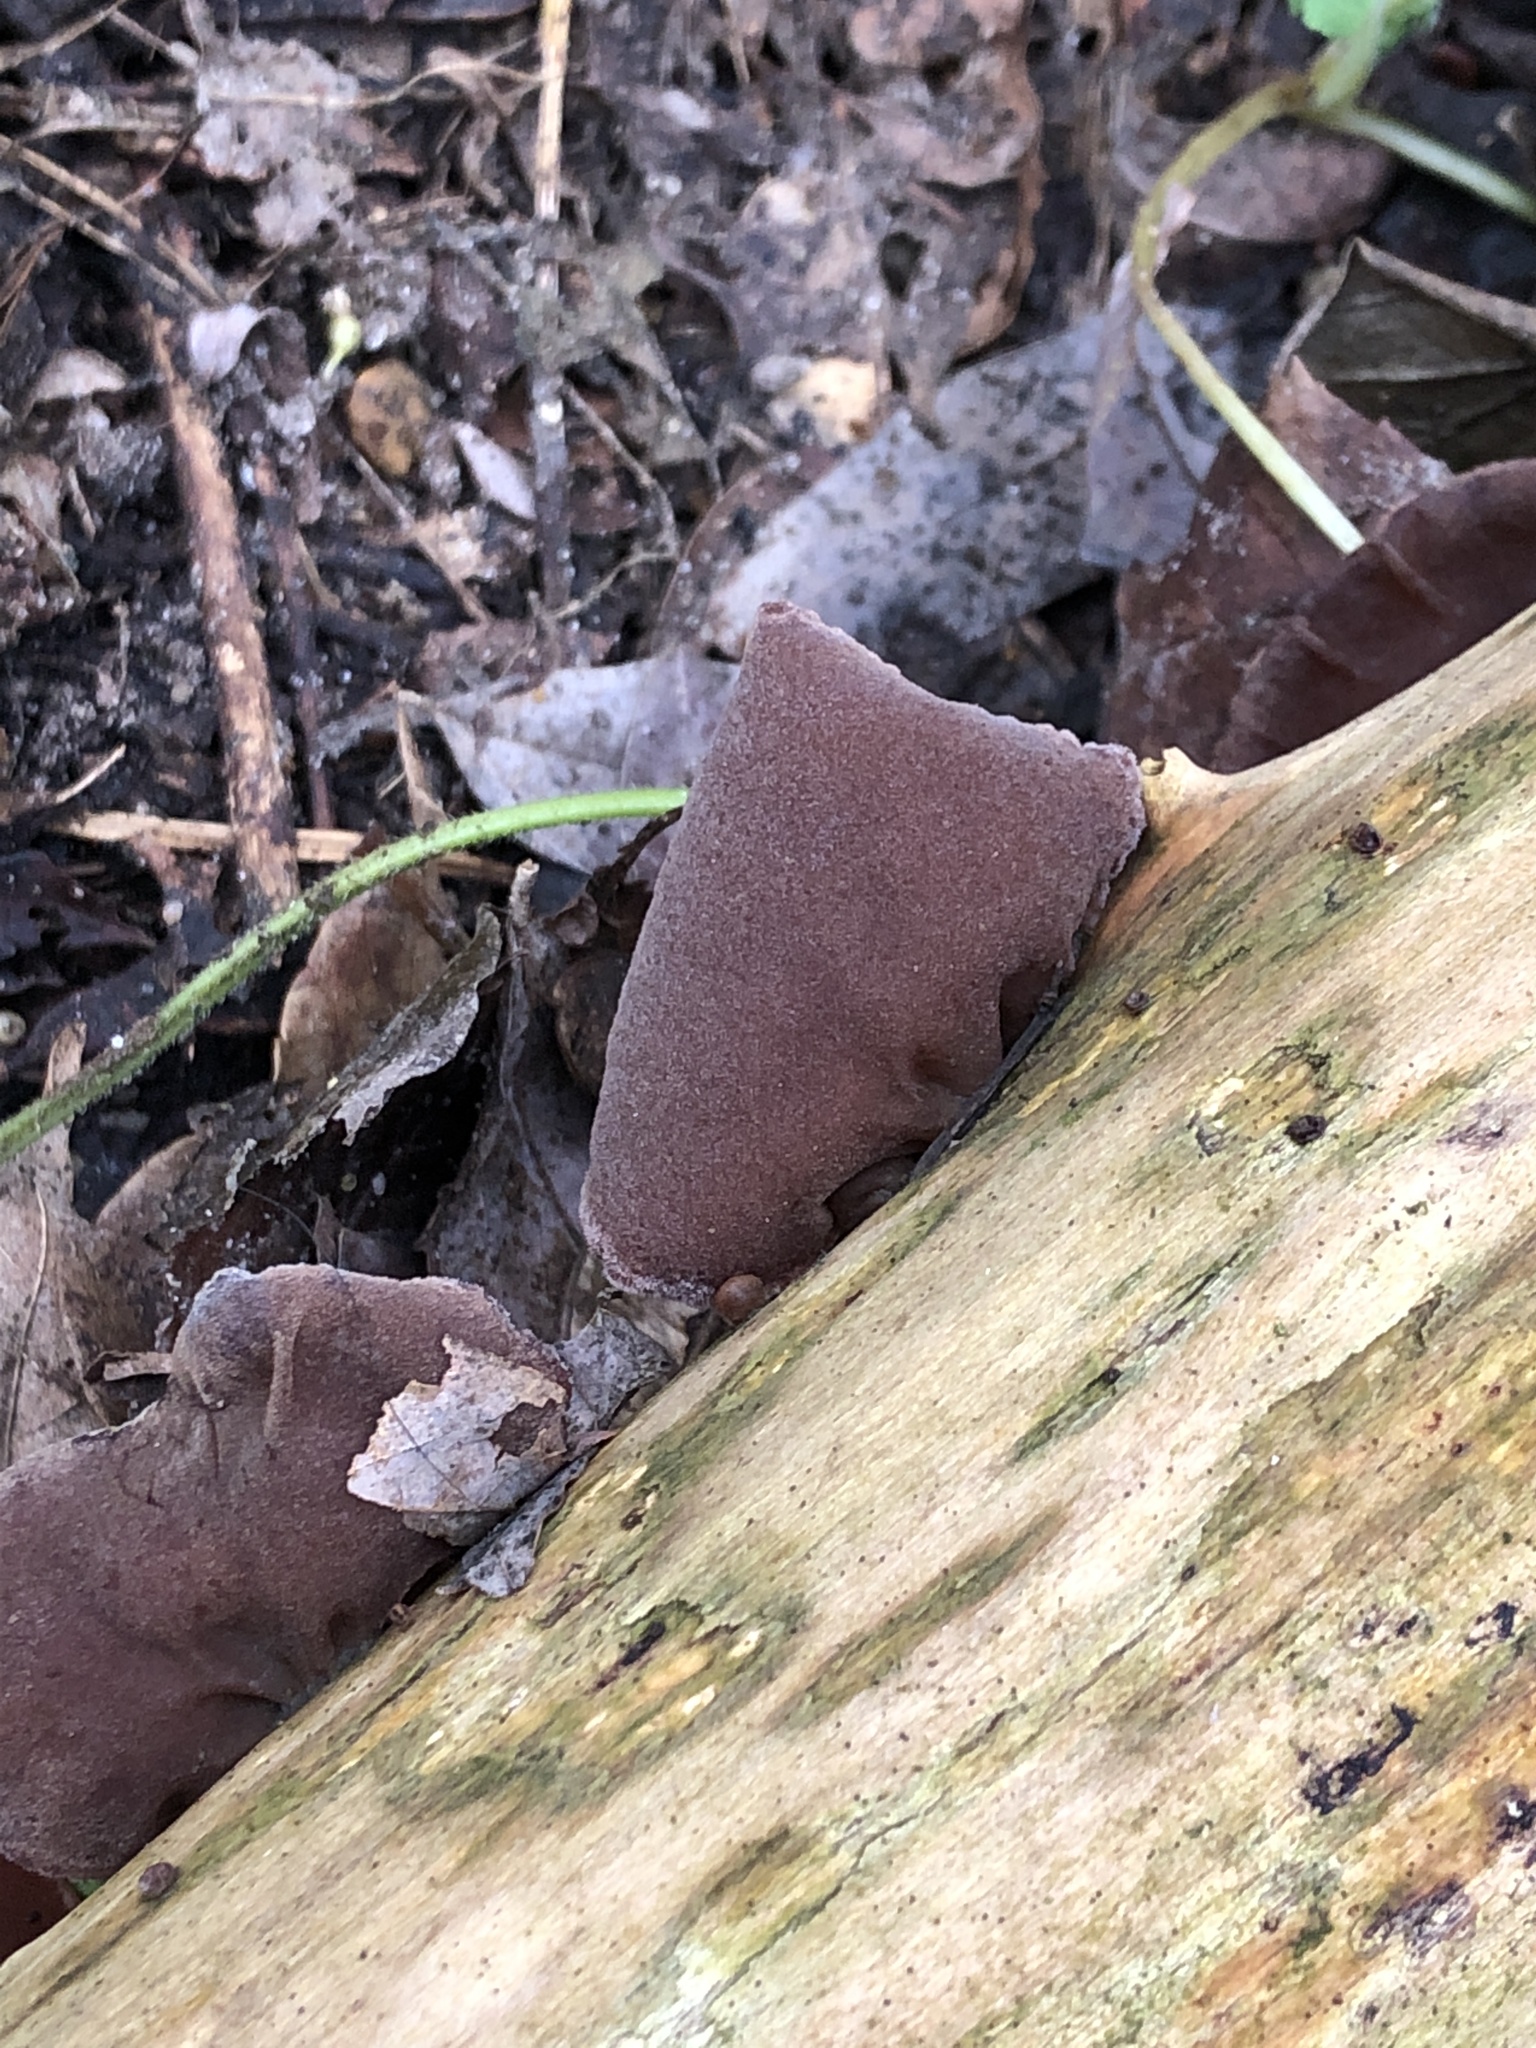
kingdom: Fungi
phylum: Basidiomycota
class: Agaricomycetes
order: Auriculariales
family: Auriculariaceae
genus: Auricularia
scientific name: Auricularia auricula-judae
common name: Jelly ear
